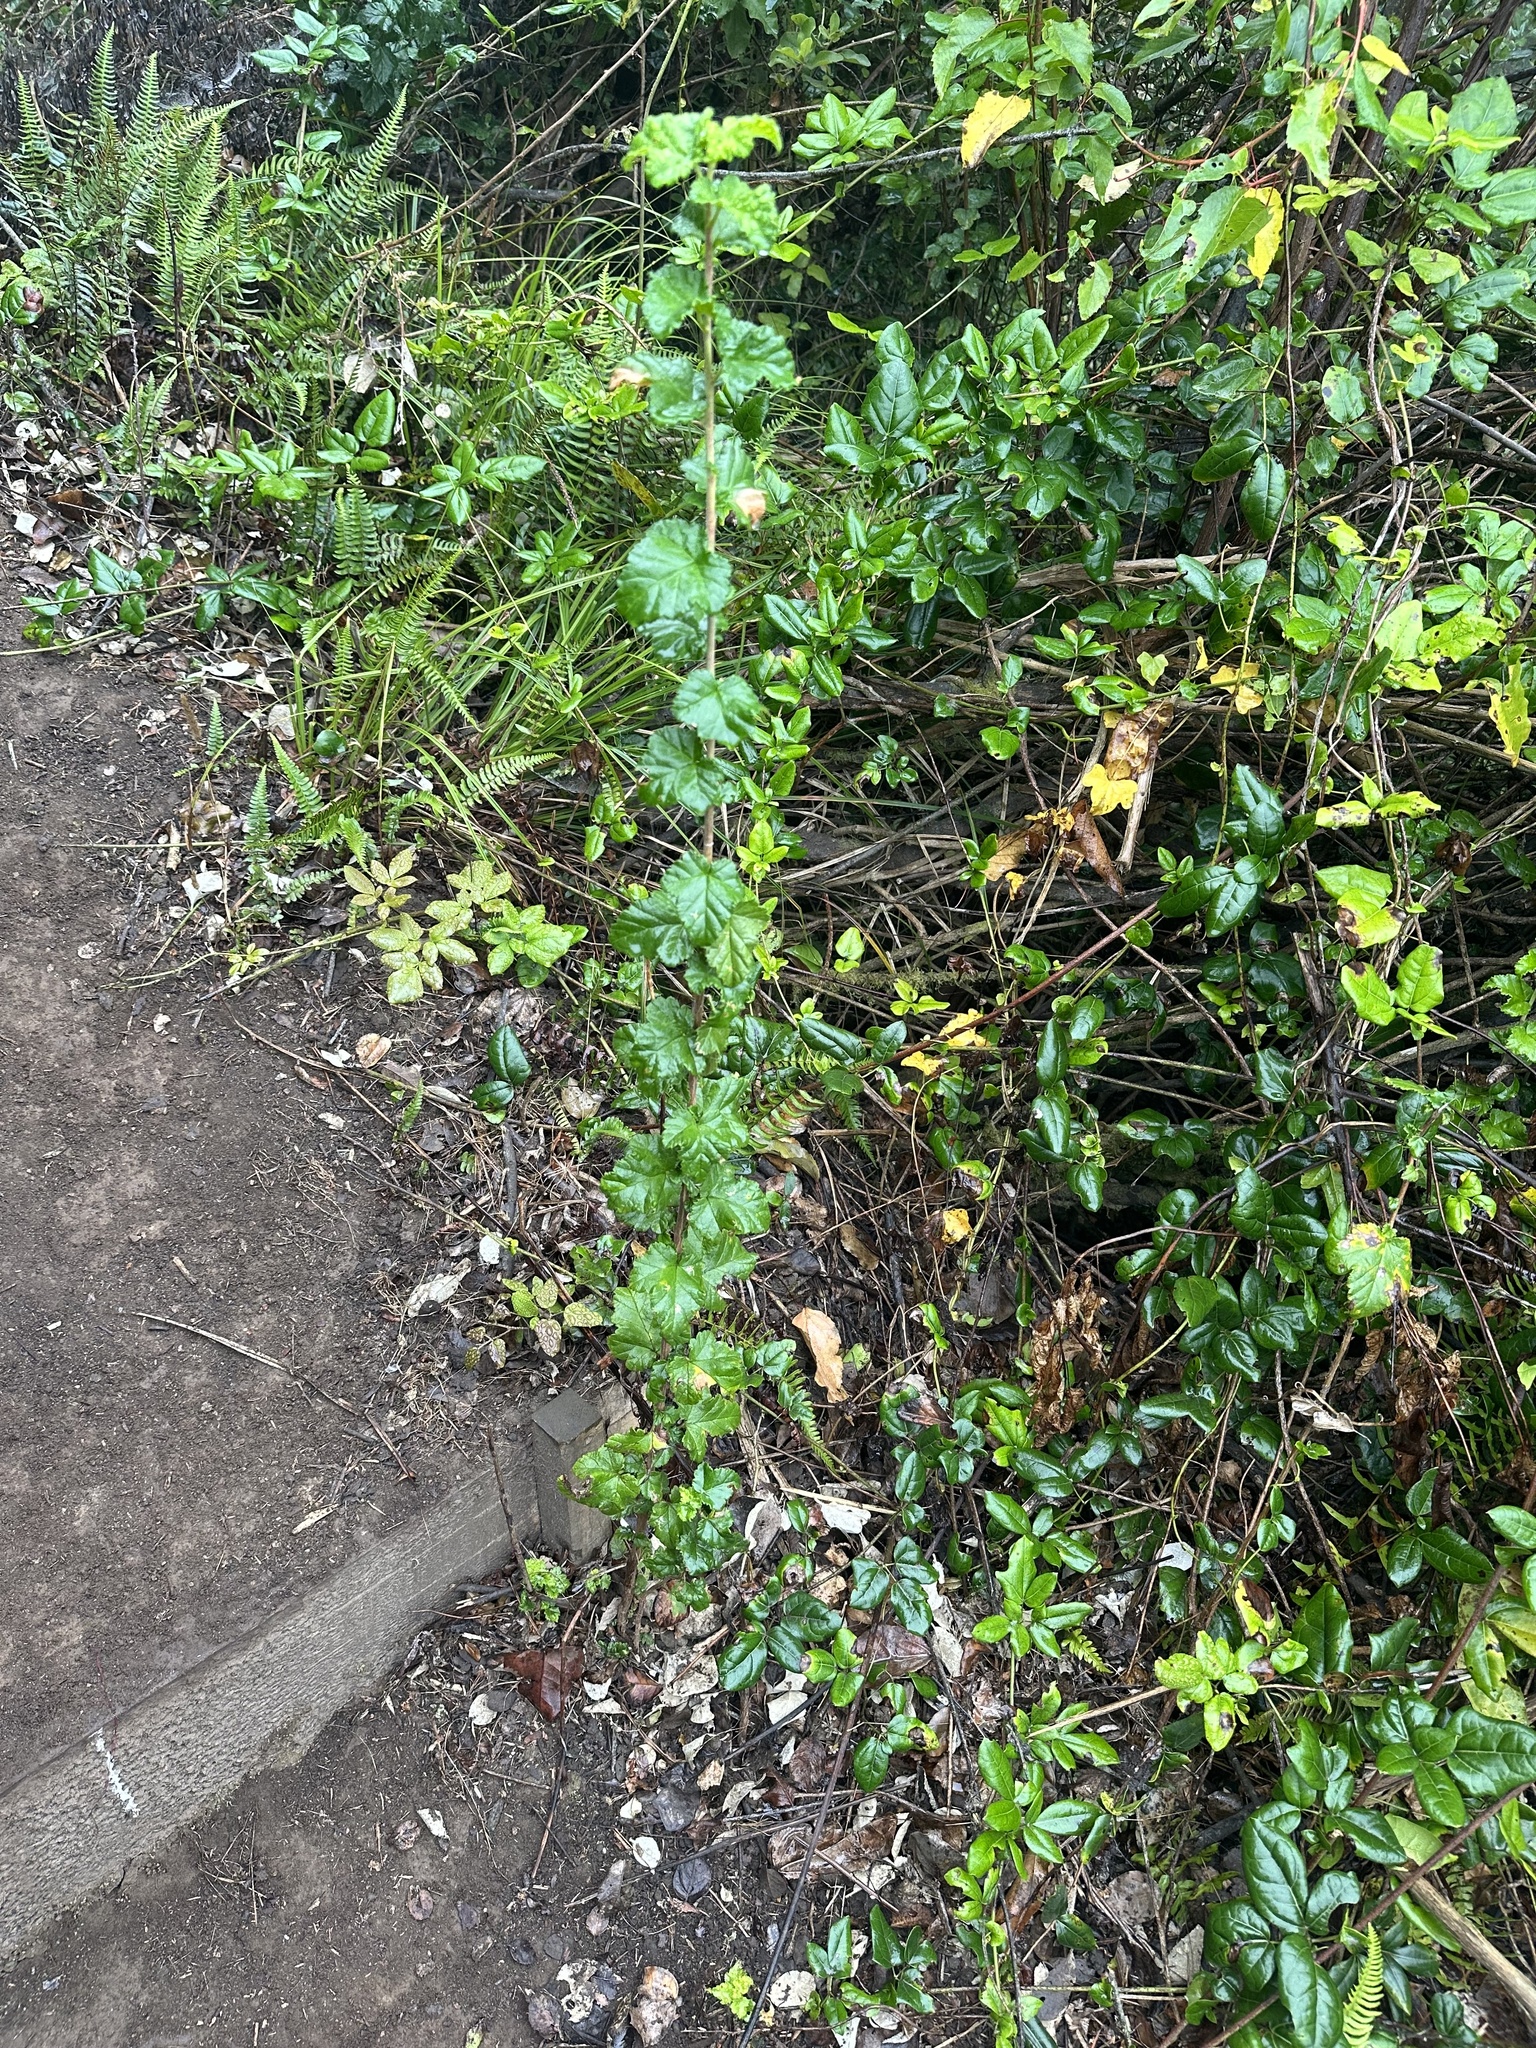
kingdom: Plantae
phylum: Tracheophyta
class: Magnoliopsida
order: Saxifragales
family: Grossulariaceae
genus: Ribes
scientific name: Ribes punctatum
